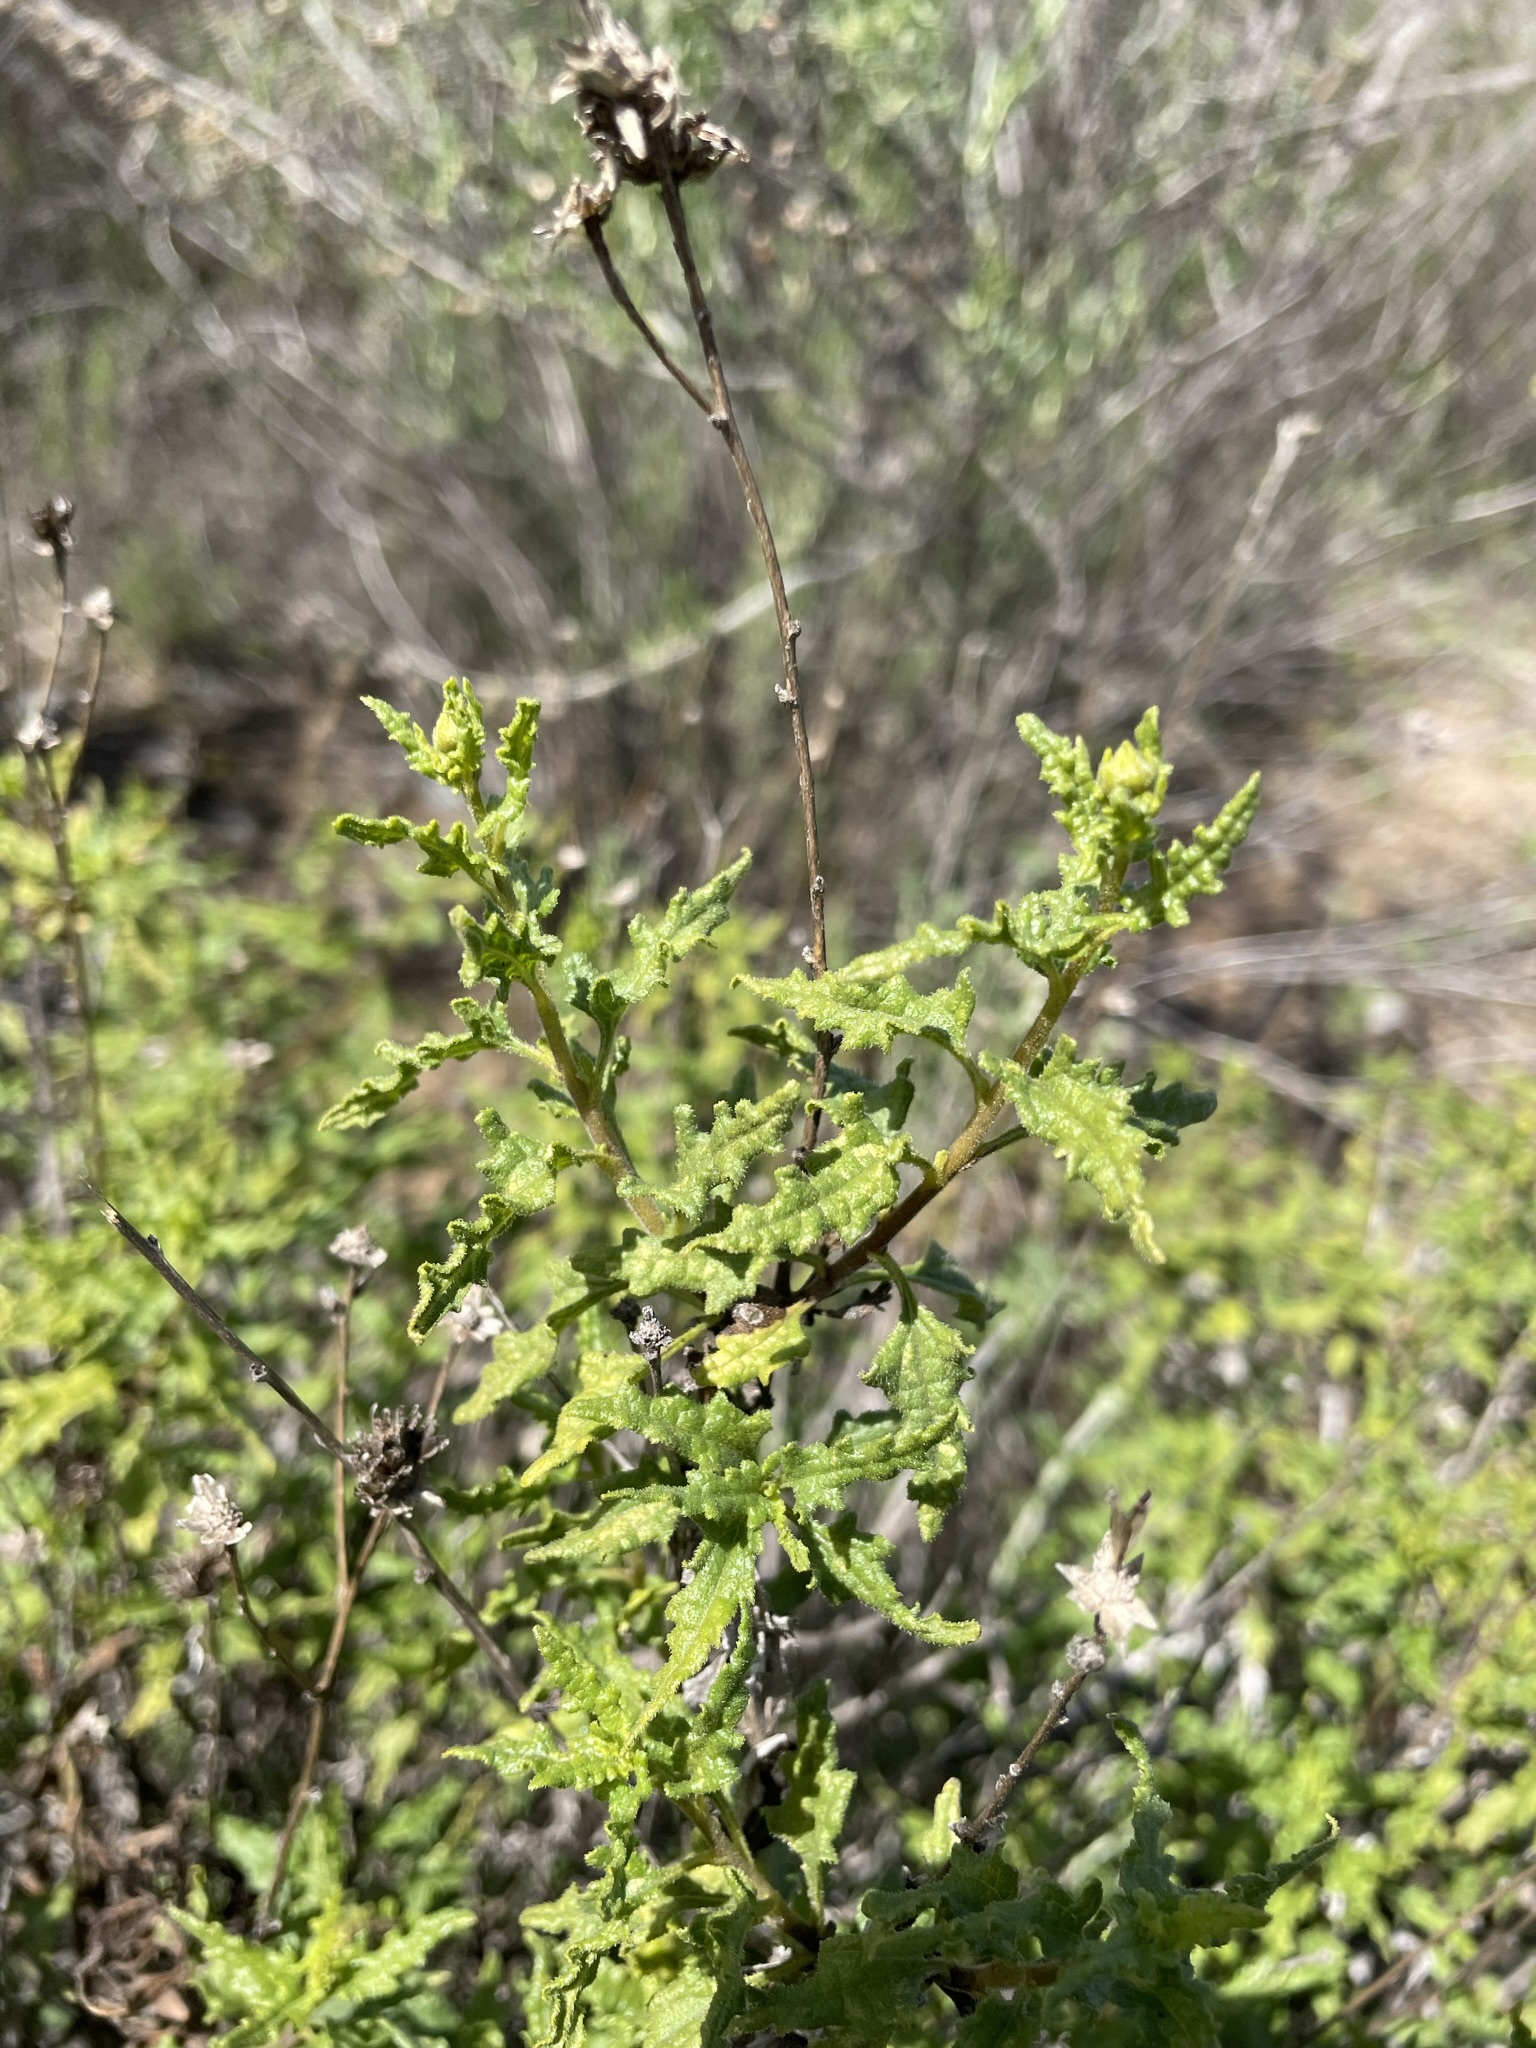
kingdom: Plantae
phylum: Tracheophyta
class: Magnoliopsida
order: Asterales
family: Asteraceae
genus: Bahiopsis
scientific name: Bahiopsis laciniata
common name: San diego county viguiera
